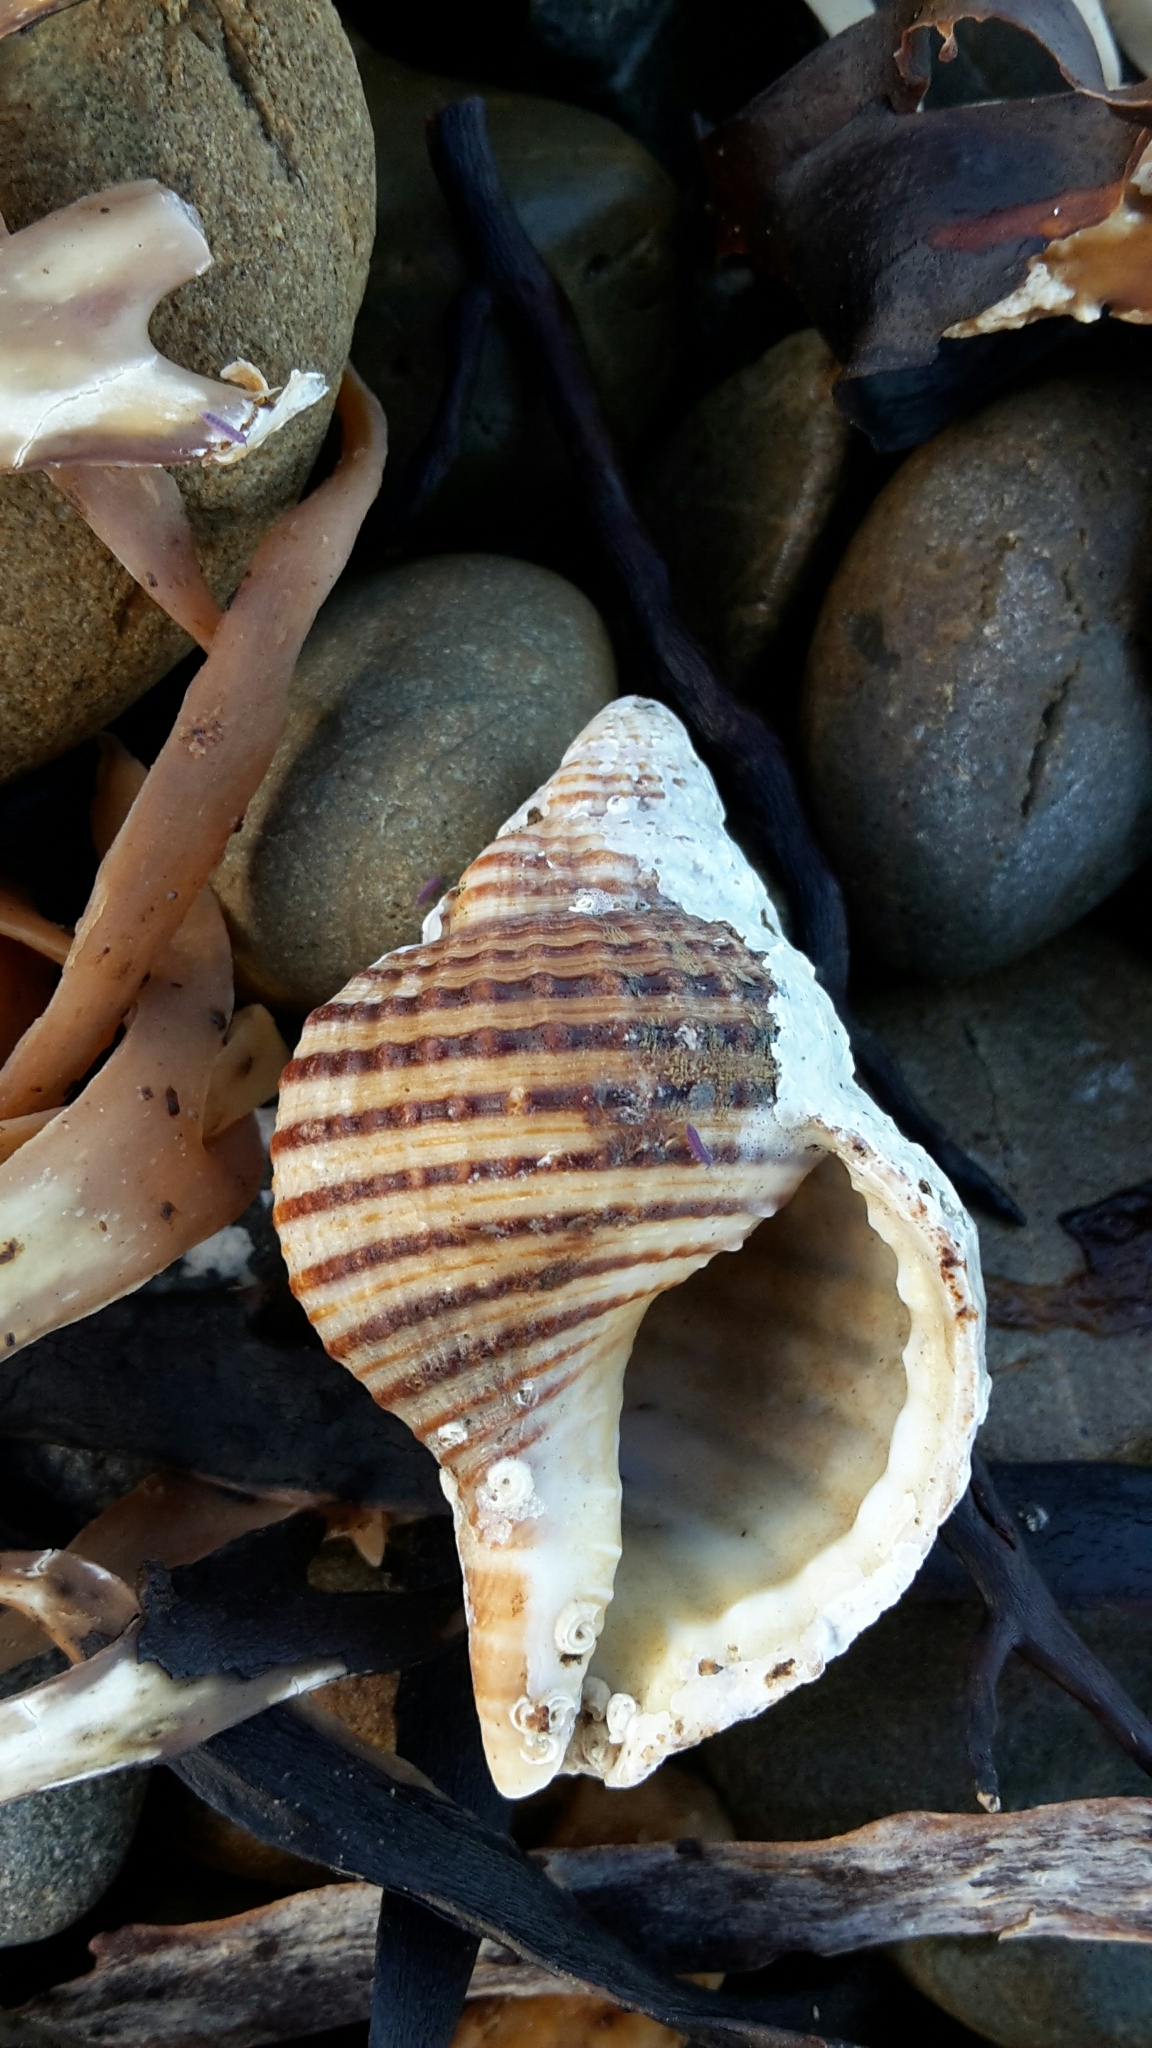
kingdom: Animalia
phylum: Mollusca
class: Gastropoda
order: Littorinimorpha
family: Cymatiidae
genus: Argobuccinum
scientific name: Argobuccinum pustulosum
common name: Pustular triton
